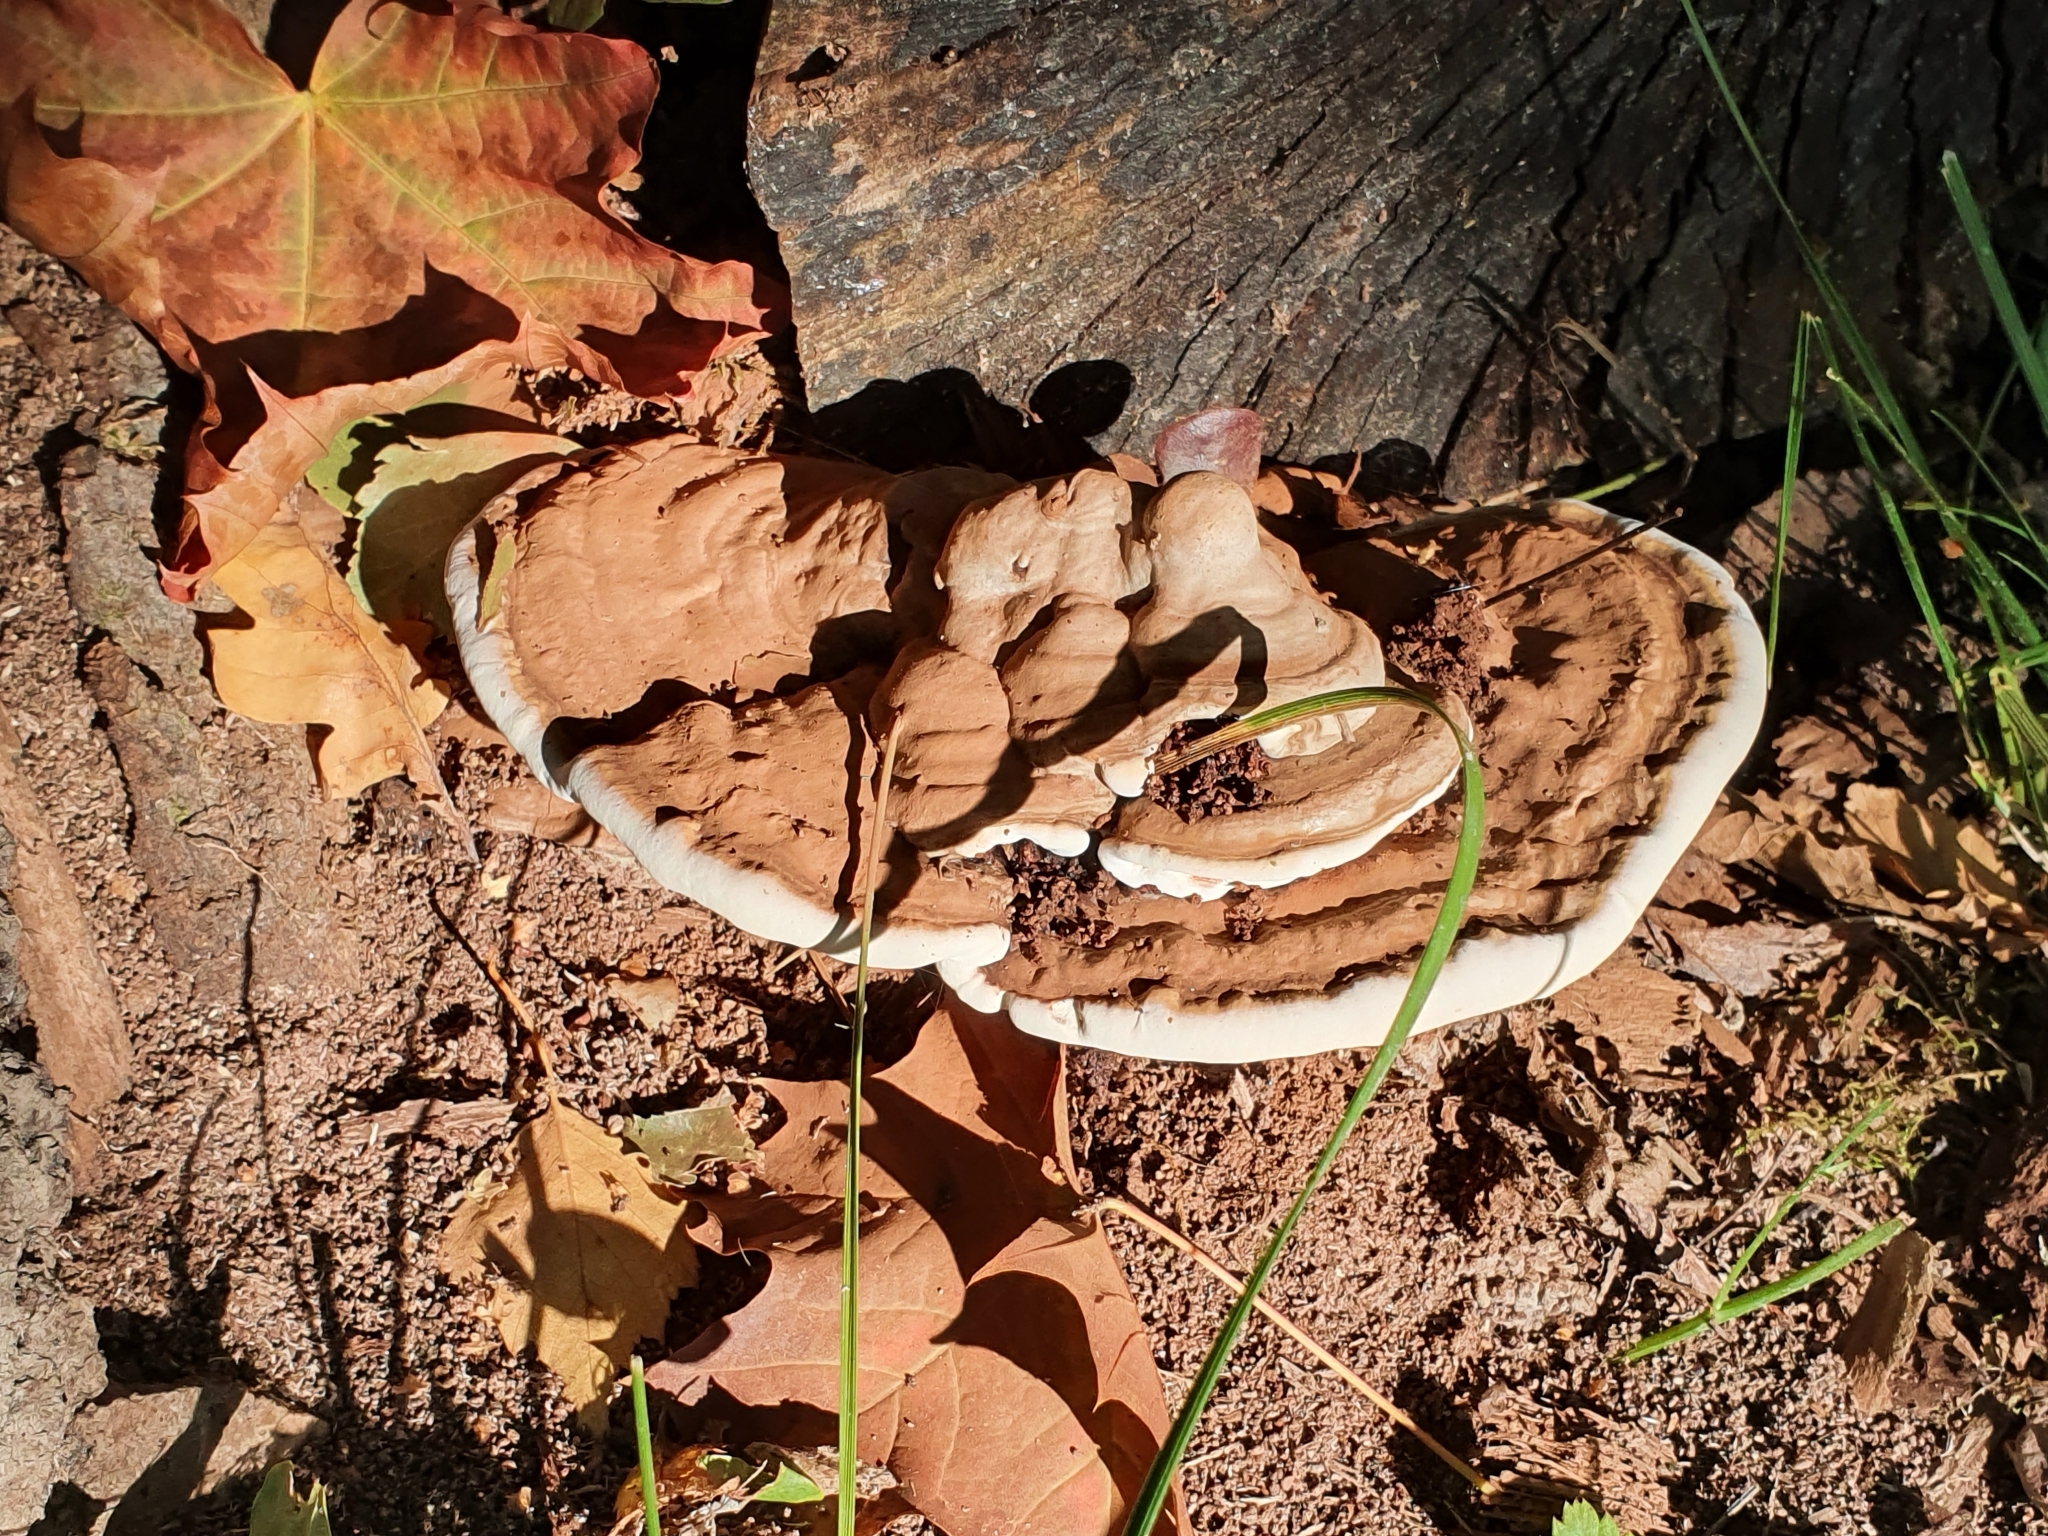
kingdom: Fungi
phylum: Basidiomycota
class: Agaricomycetes
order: Polyporales
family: Polyporaceae
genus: Ganoderma
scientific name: Ganoderma applanatum
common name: Artist's bracket
